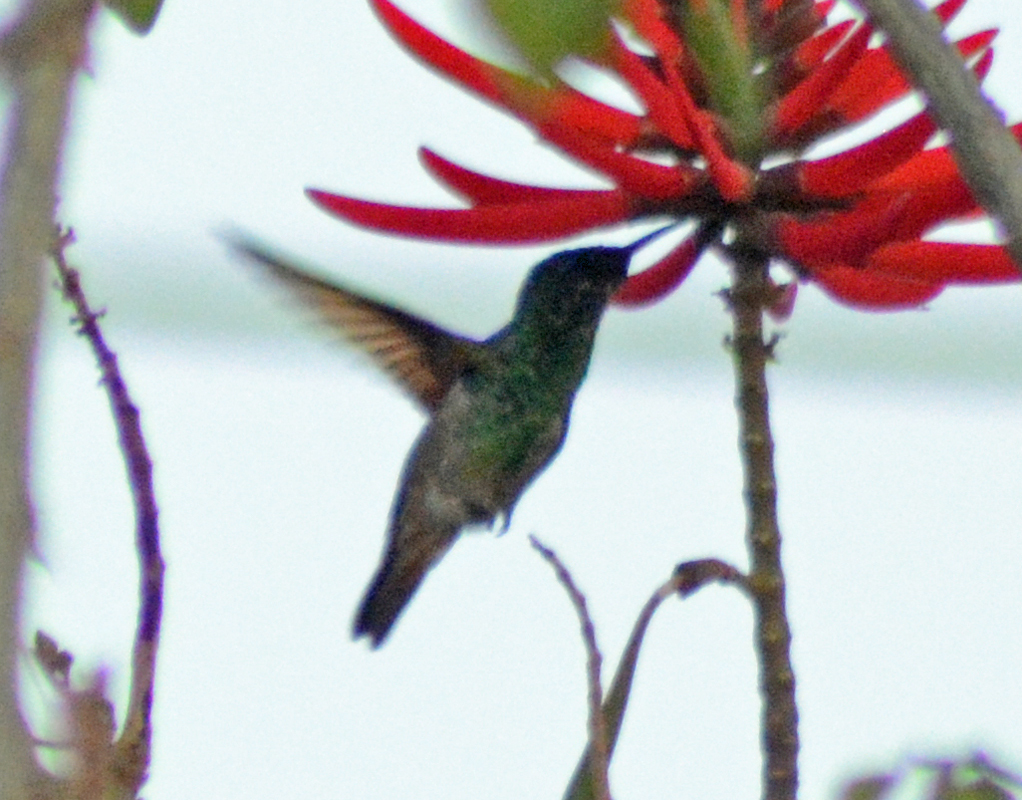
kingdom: Animalia
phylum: Chordata
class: Aves
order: Apodiformes
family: Trochilidae
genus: Saucerottia
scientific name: Saucerottia beryllina
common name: Berylline hummingbird
